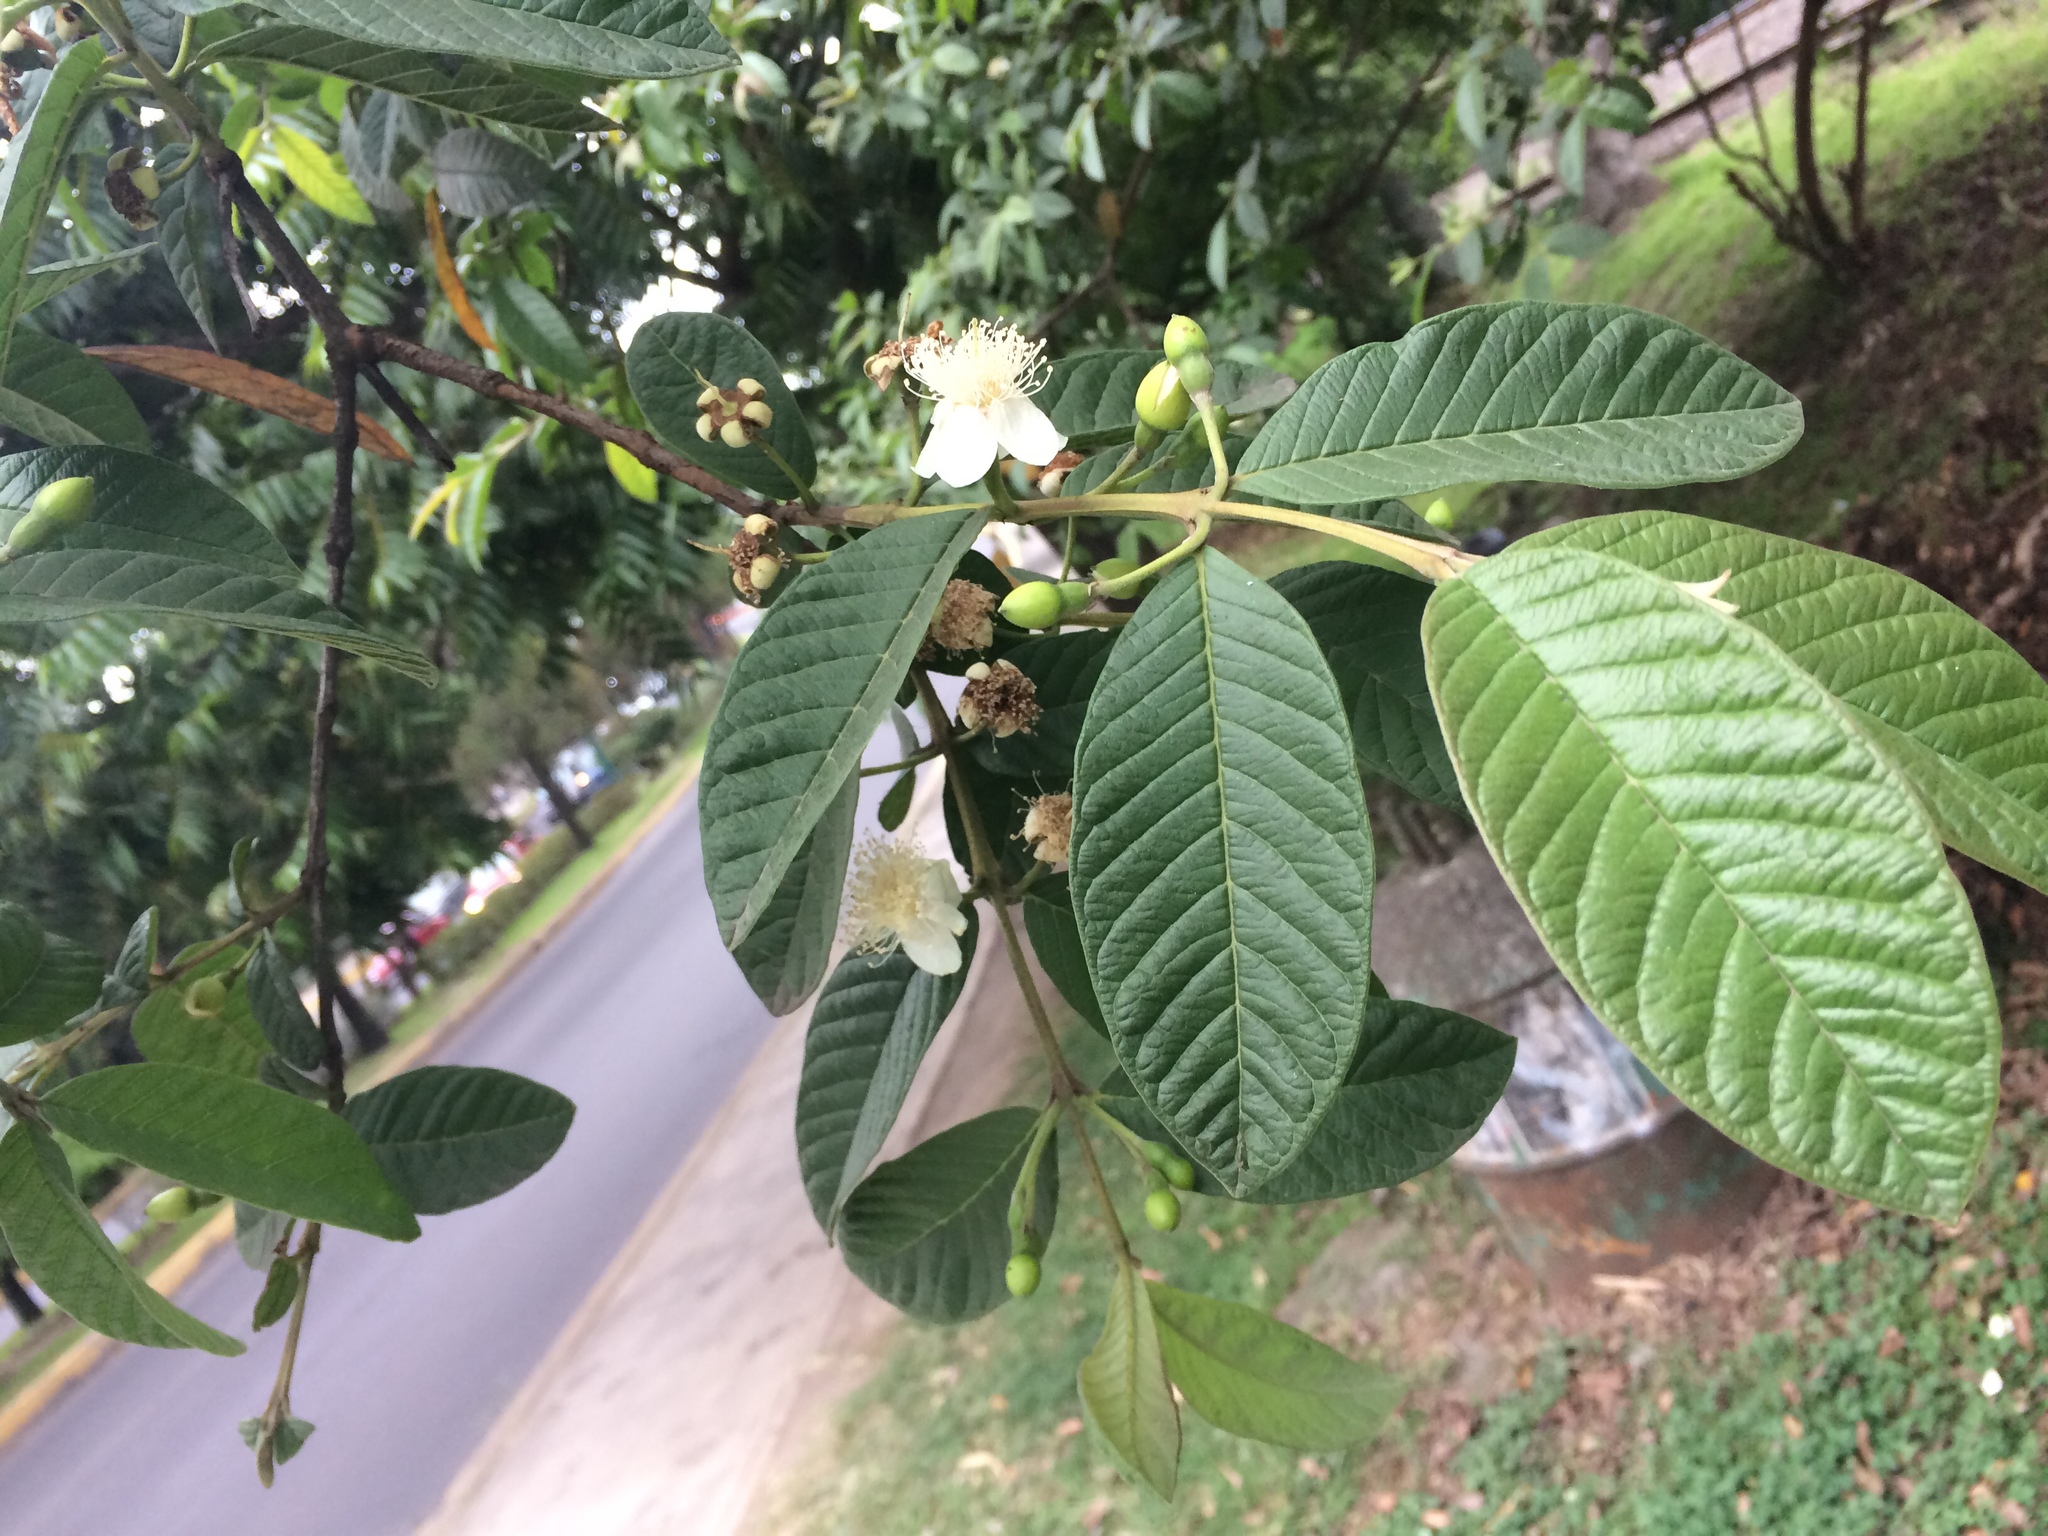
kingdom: Plantae
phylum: Tracheophyta
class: Magnoliopsida
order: Myrtales
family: Myrtaceae
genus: Psidium
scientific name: Psidium guajava
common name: Guava
